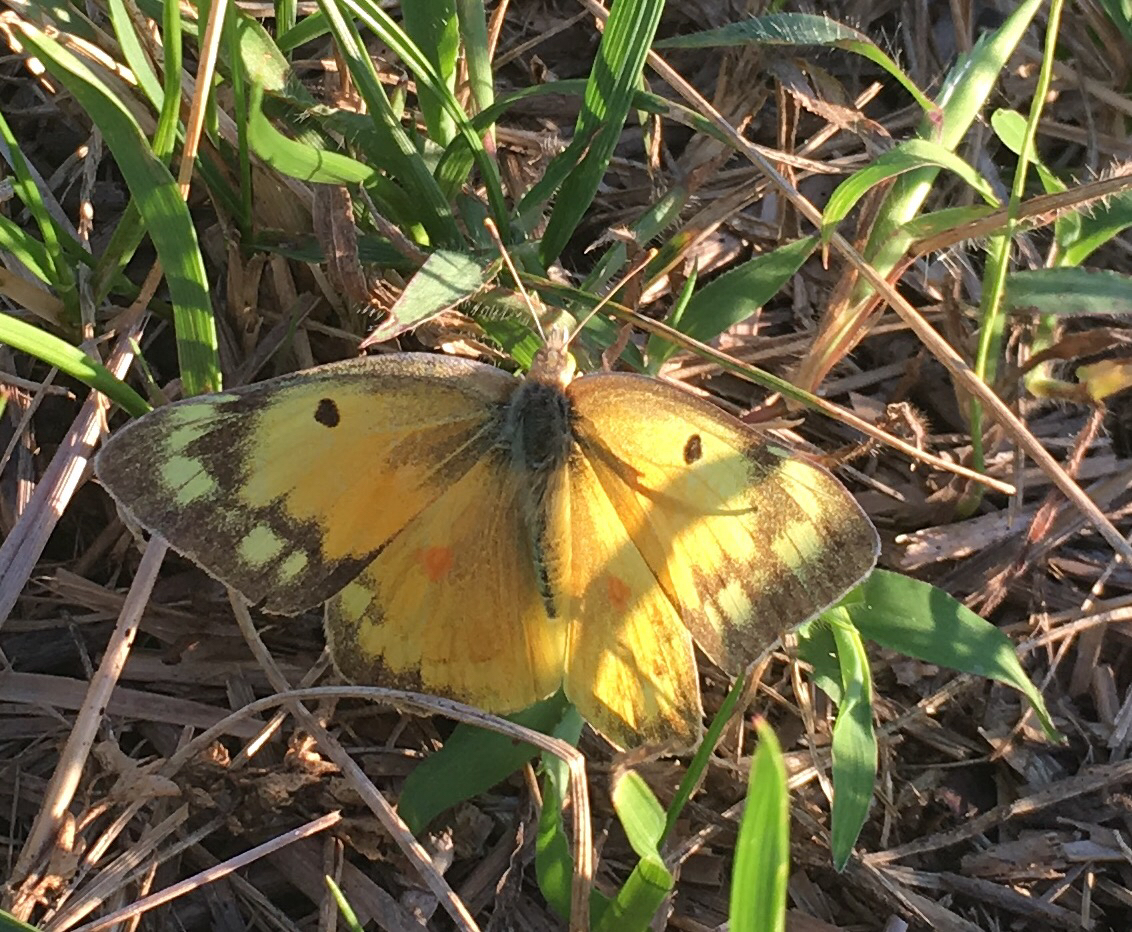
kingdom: Animalia
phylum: Arthropoda
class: Insecta
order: Lepidoptera
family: Pieridae
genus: Colias
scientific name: Colias eurytheme
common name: Alfalfa butterfly
